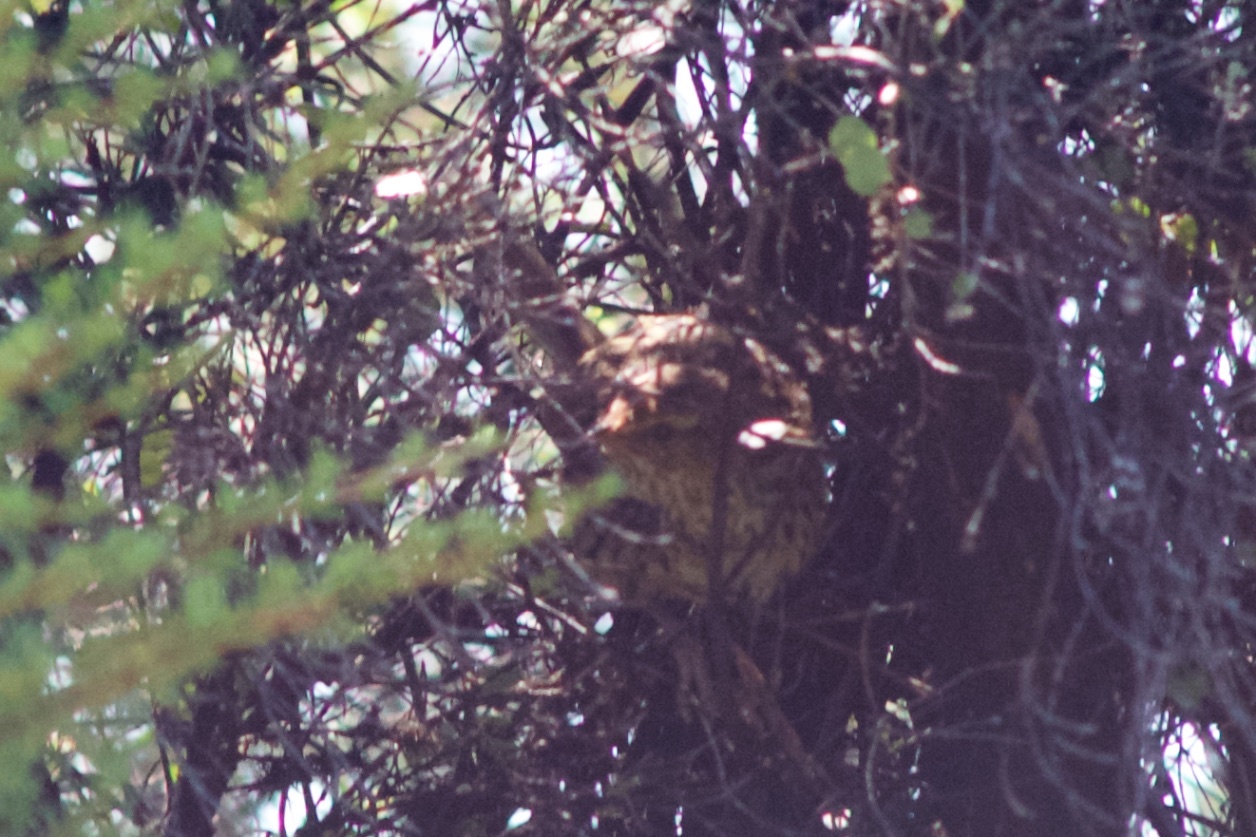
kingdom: Animalia
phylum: Chordata
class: Aves
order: Passeriformes
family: Locustellidae
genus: Poodytes
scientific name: Poodytes punctatus
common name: New zealand fernbird
